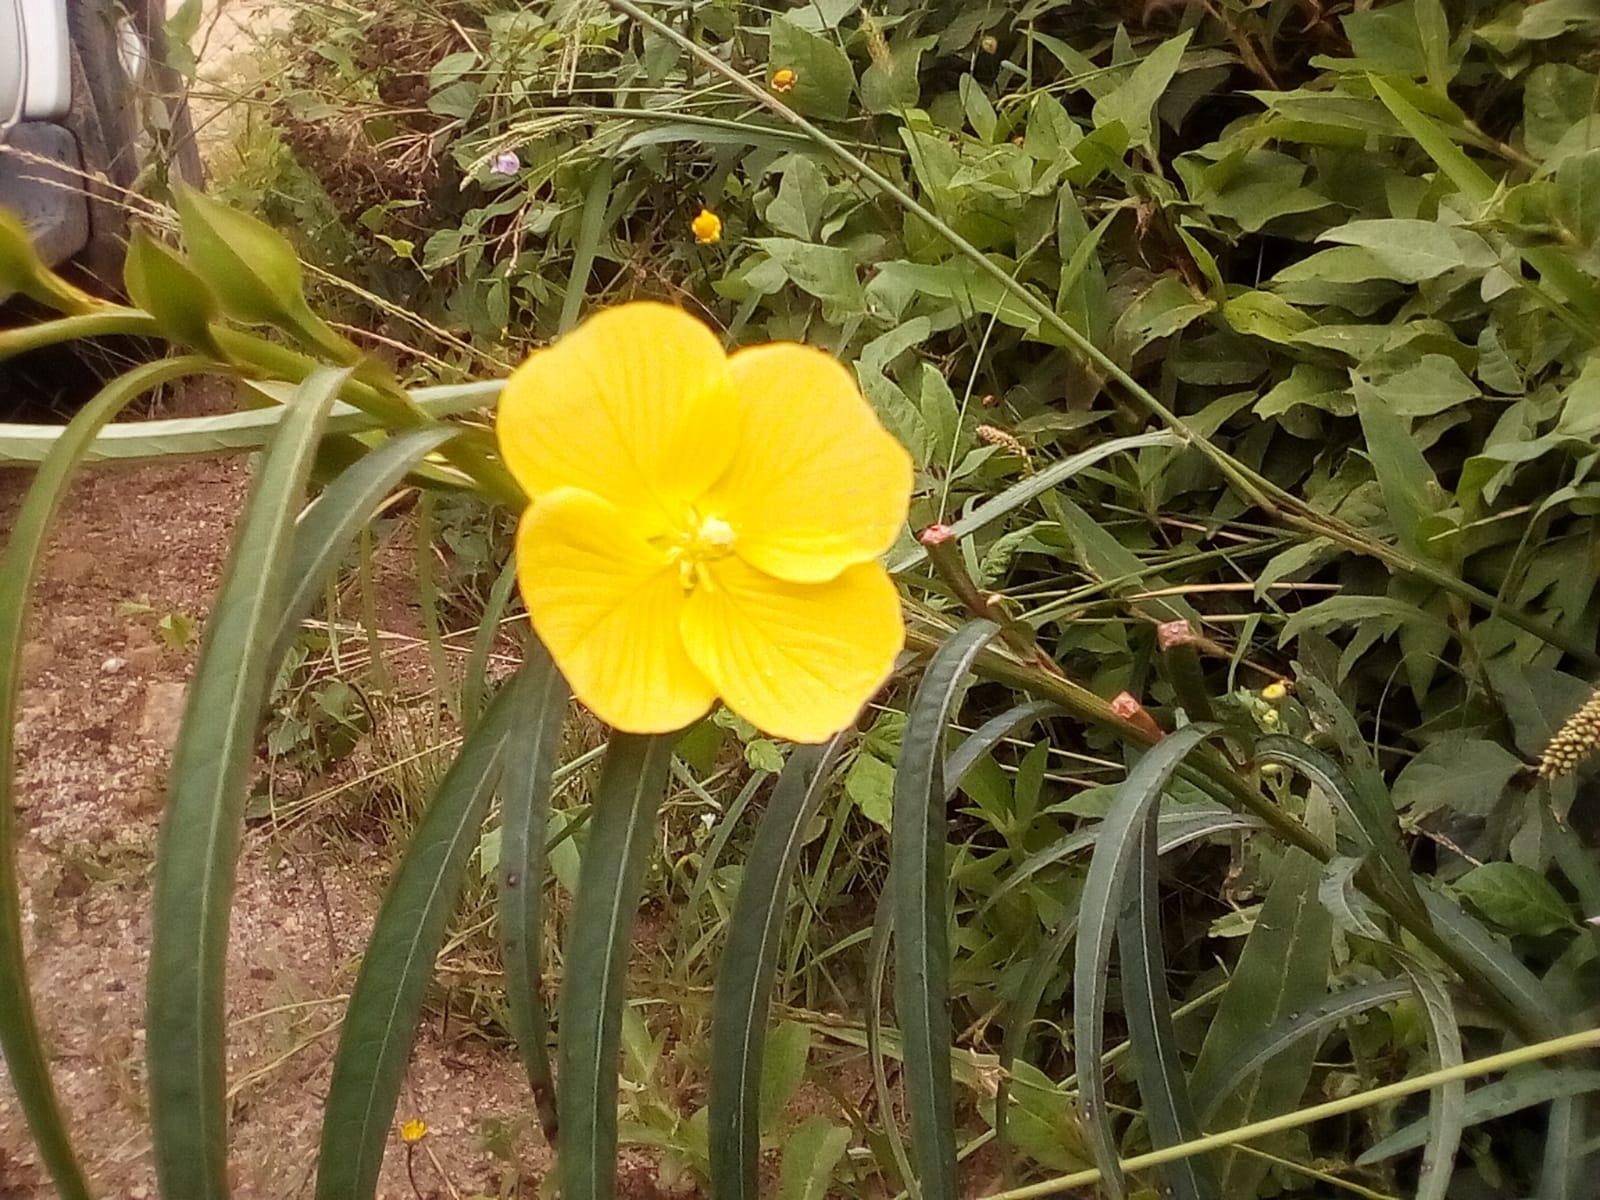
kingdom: Plantae
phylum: Tracheophyta
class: Magnoliopsida
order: Myrtales
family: Onagraceae
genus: Ludwigia
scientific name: Ludwigia longifolia
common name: Longleaf primrose-willow
